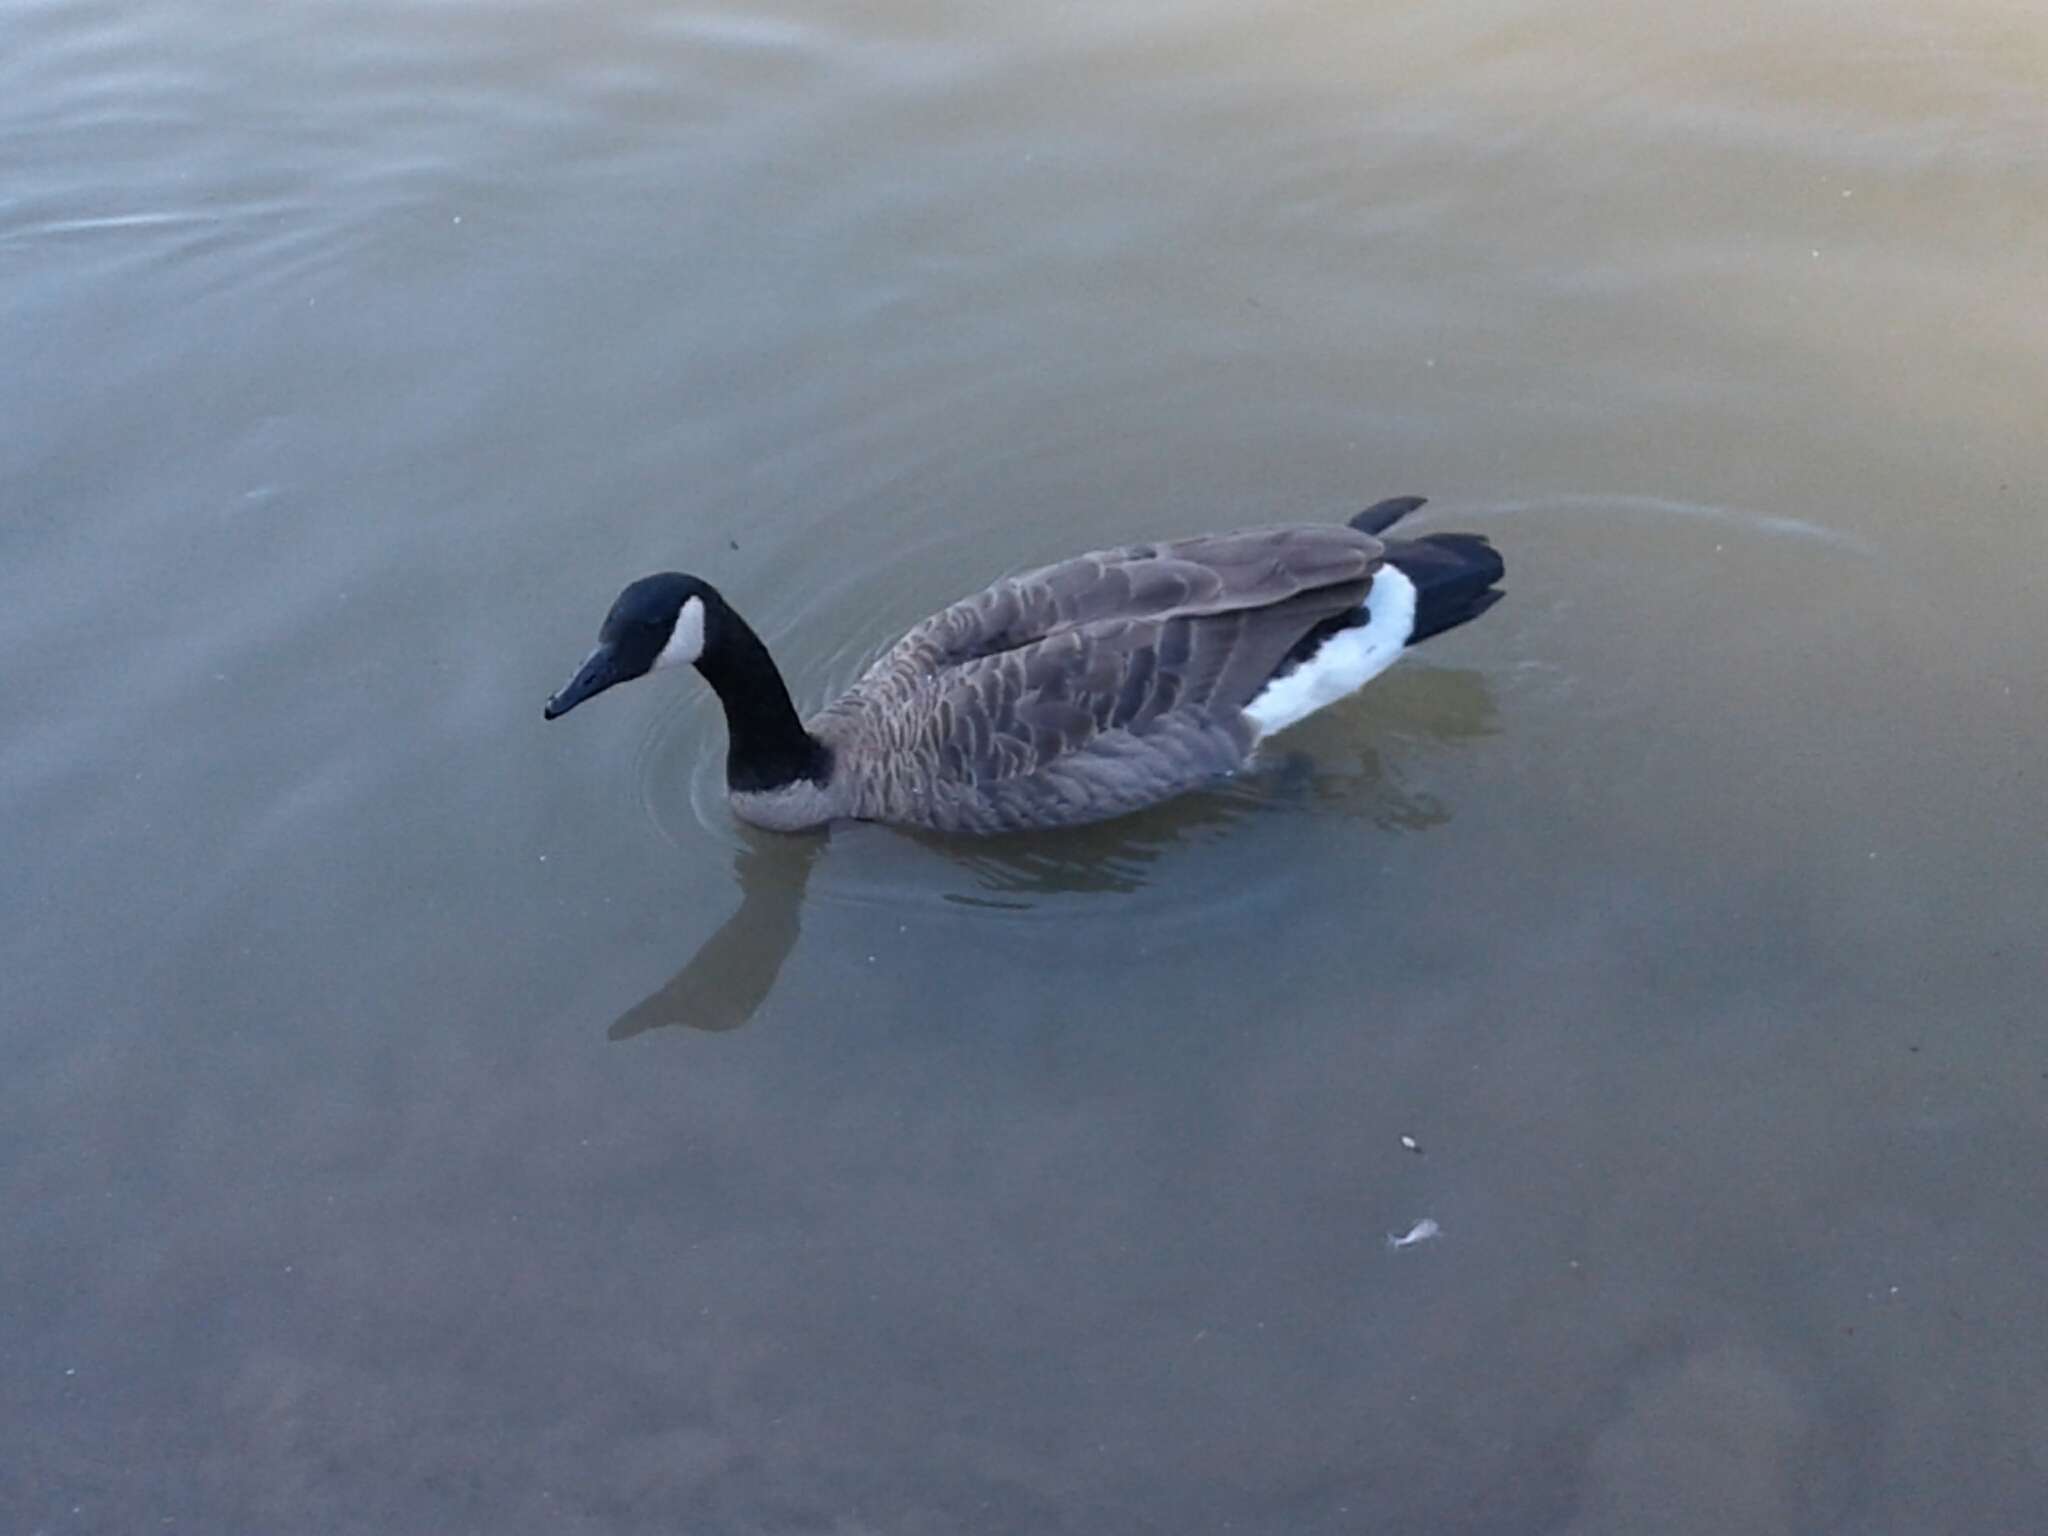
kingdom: Animalia
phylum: Chordata
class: Aves
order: Anseriformes
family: Anatidae
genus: Branta
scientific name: Branta canadensis
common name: Canada goose
